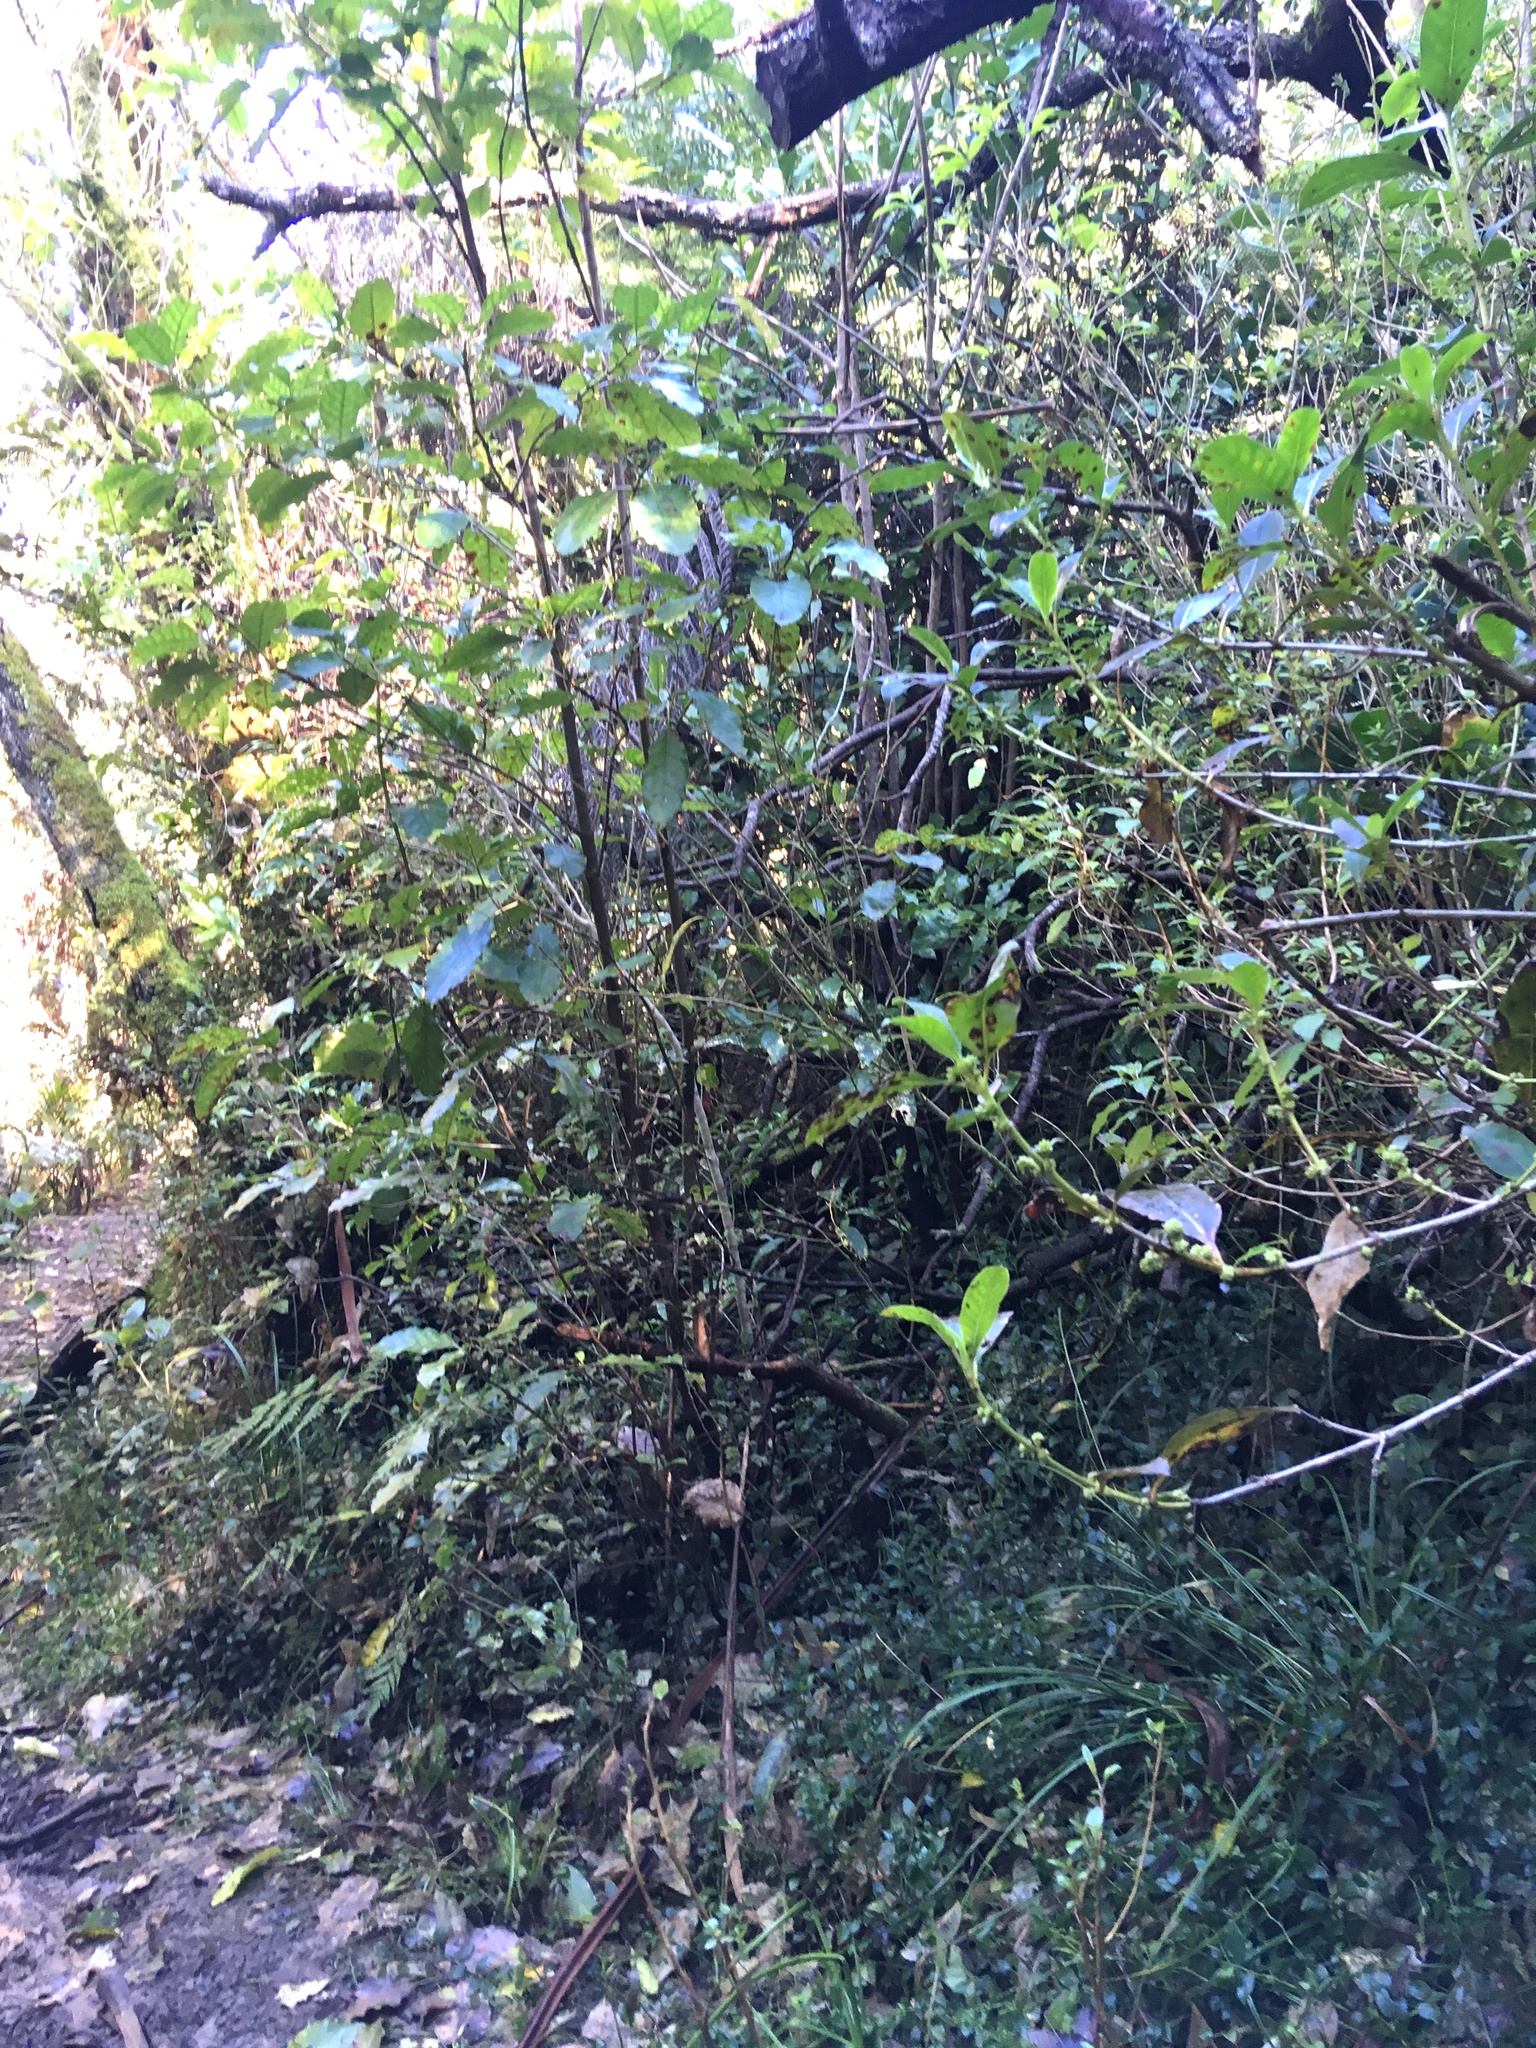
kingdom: Plantae
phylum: Tracheophyta
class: Liliopsida
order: Commelinales
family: Commelinaceae
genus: Tradescantia
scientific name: Tradescantia fluminensis
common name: Wandering-jew
